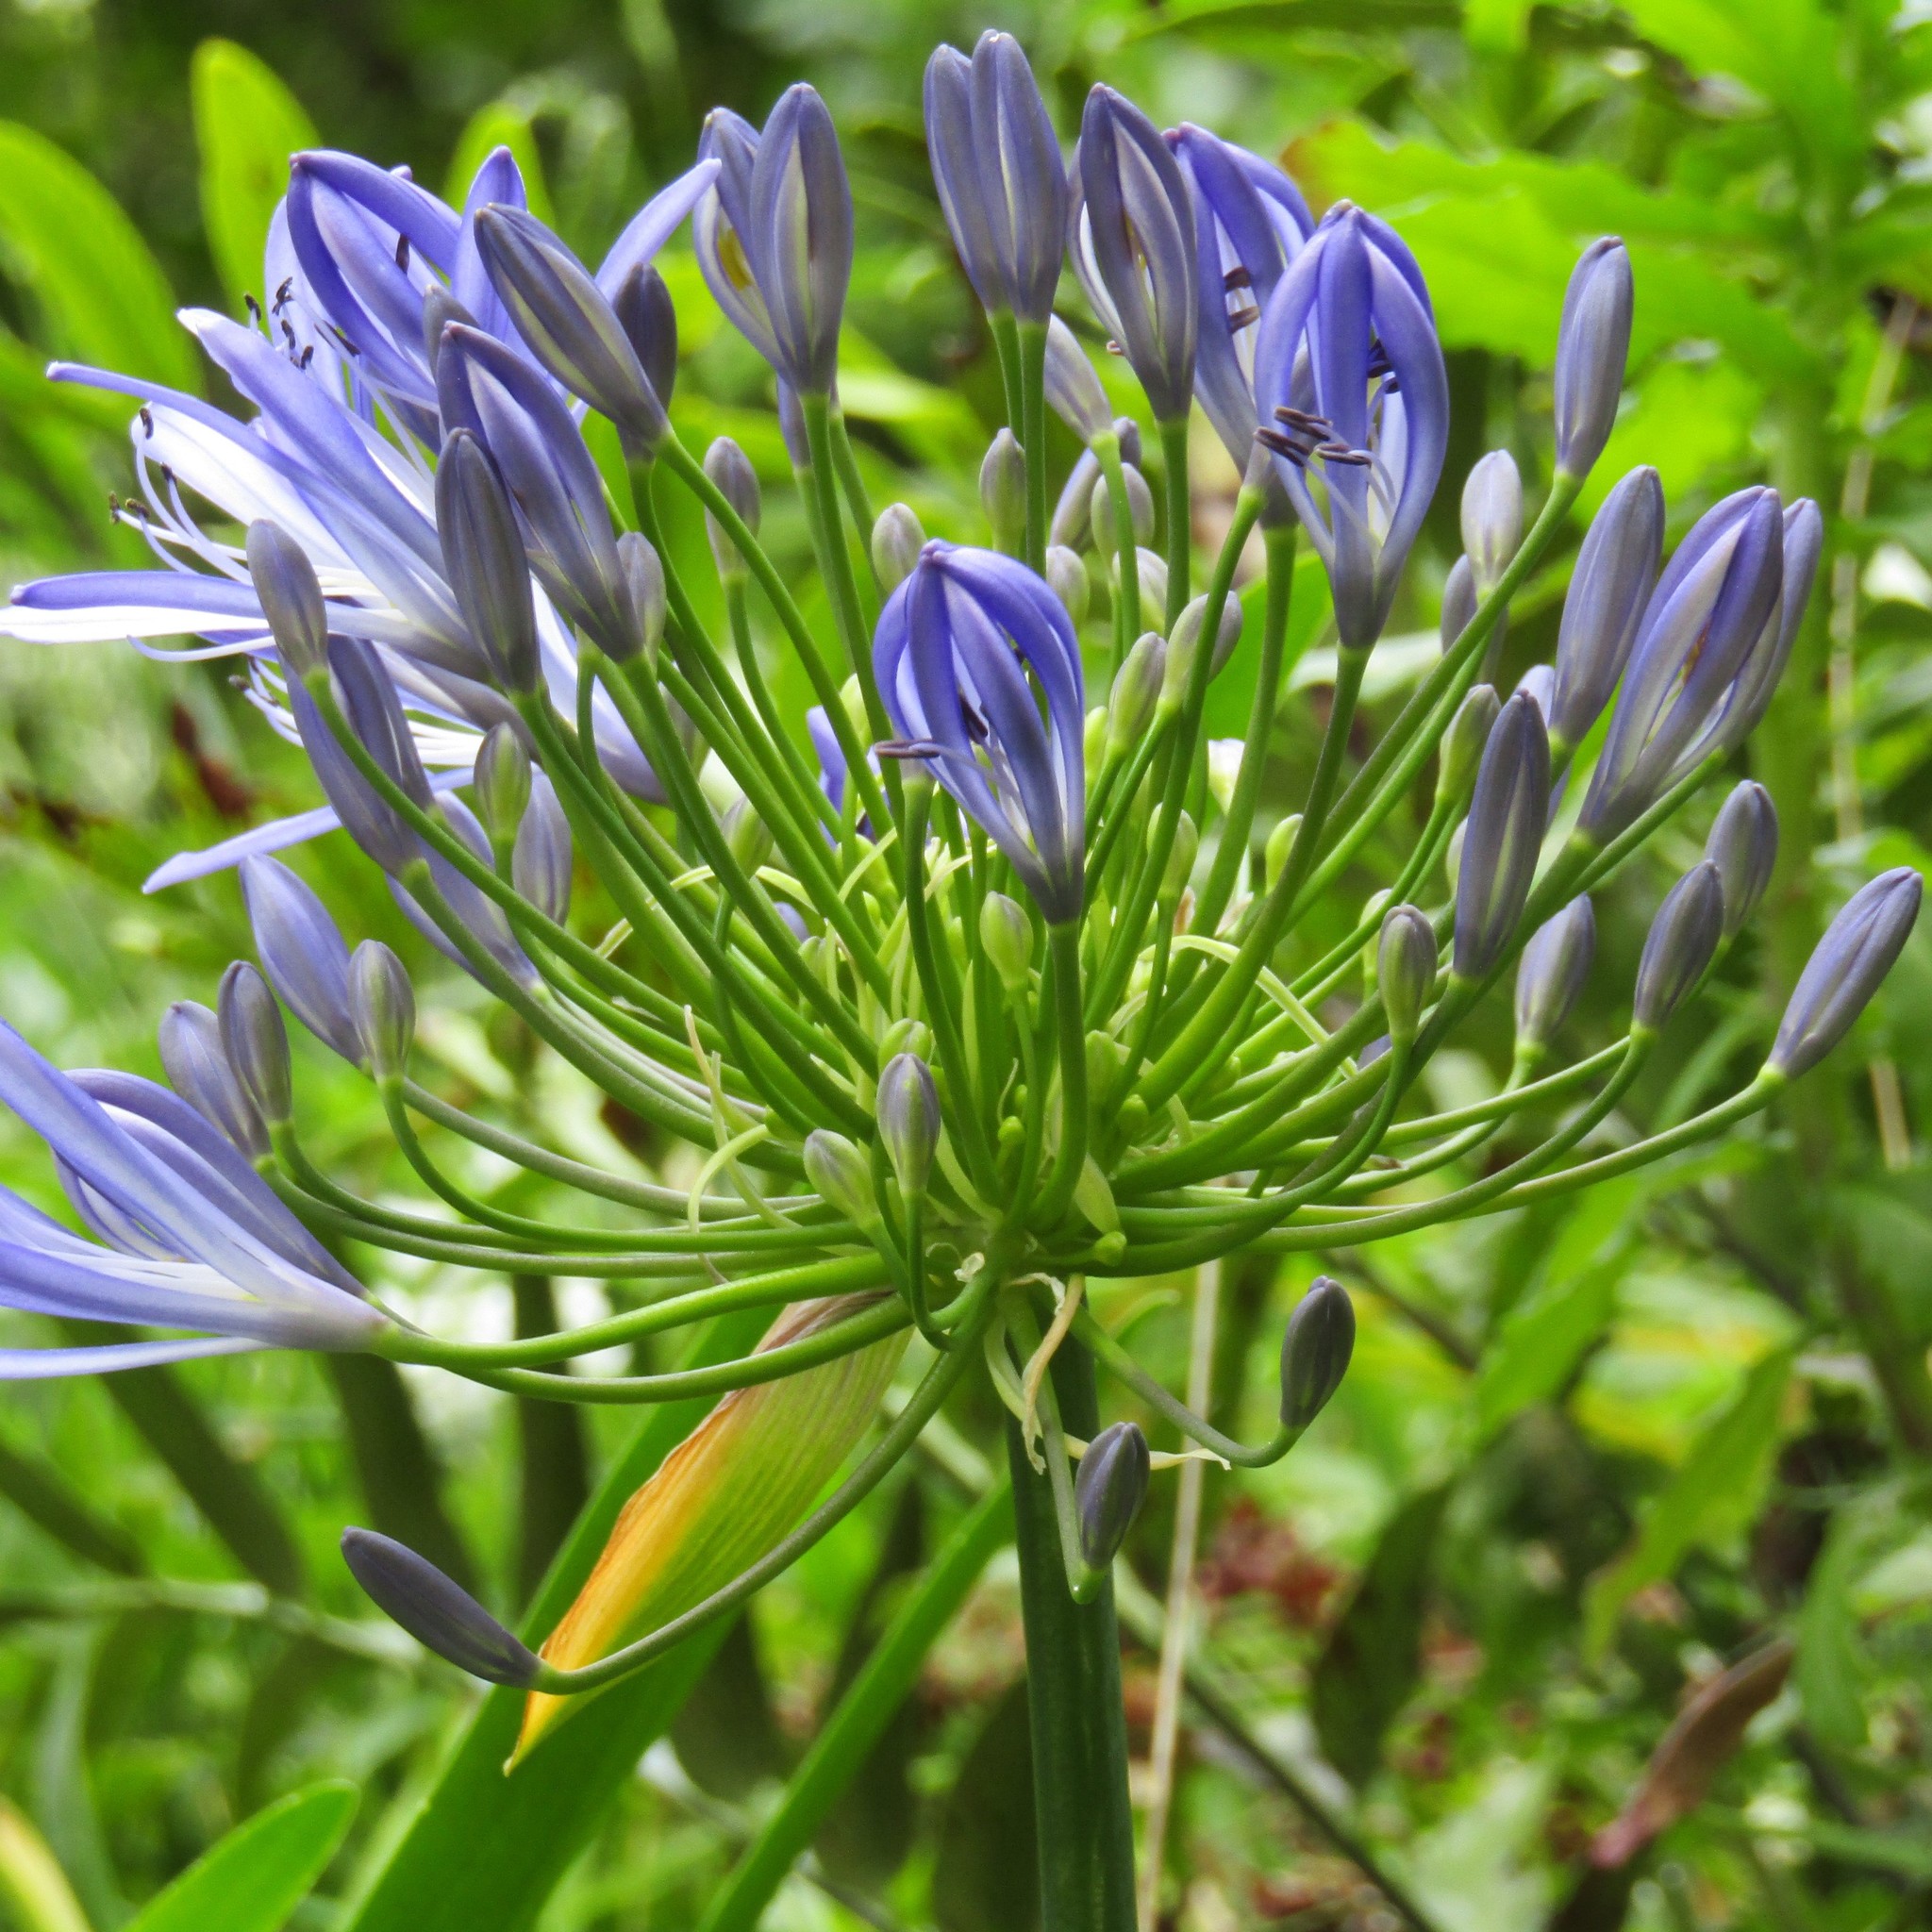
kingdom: Plantae
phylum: Tracheophyta
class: Liliopsida
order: Asparagales
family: Amaryllidaceae
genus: Agapanthus
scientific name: Agapanthus praecox
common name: African-lily
